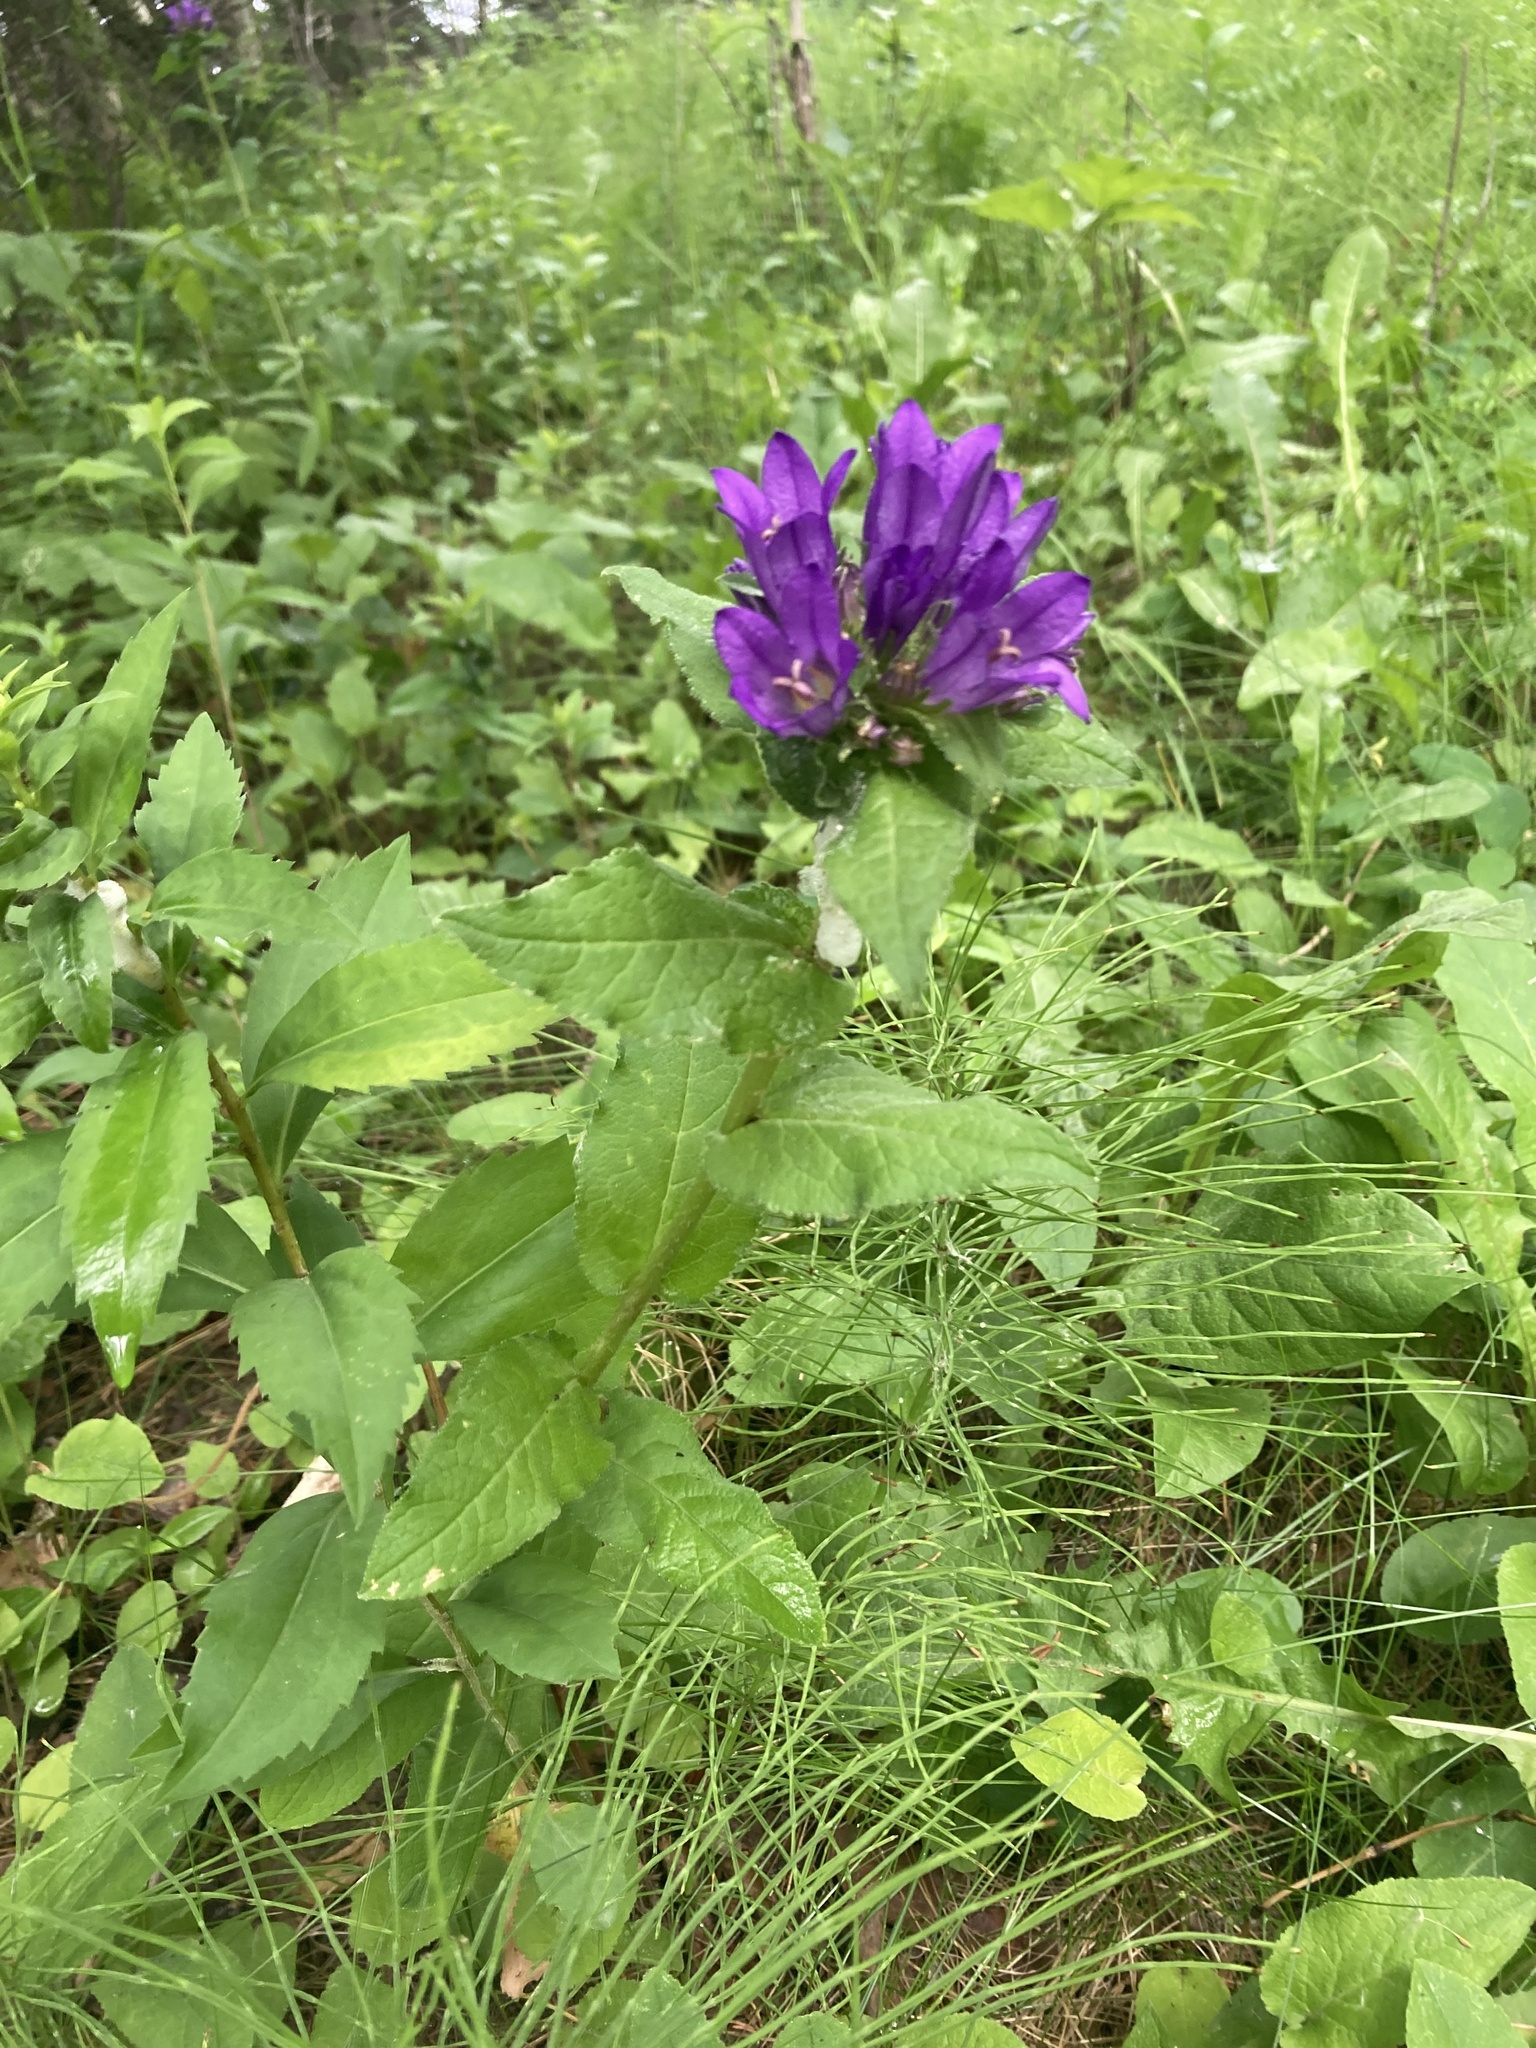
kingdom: Plantae
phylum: Tracheophyta
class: Magnoliopsida
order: Asterales
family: Campanulaceae
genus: Campanula
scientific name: Campanula rapunculoides
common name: Creeping bellflower
